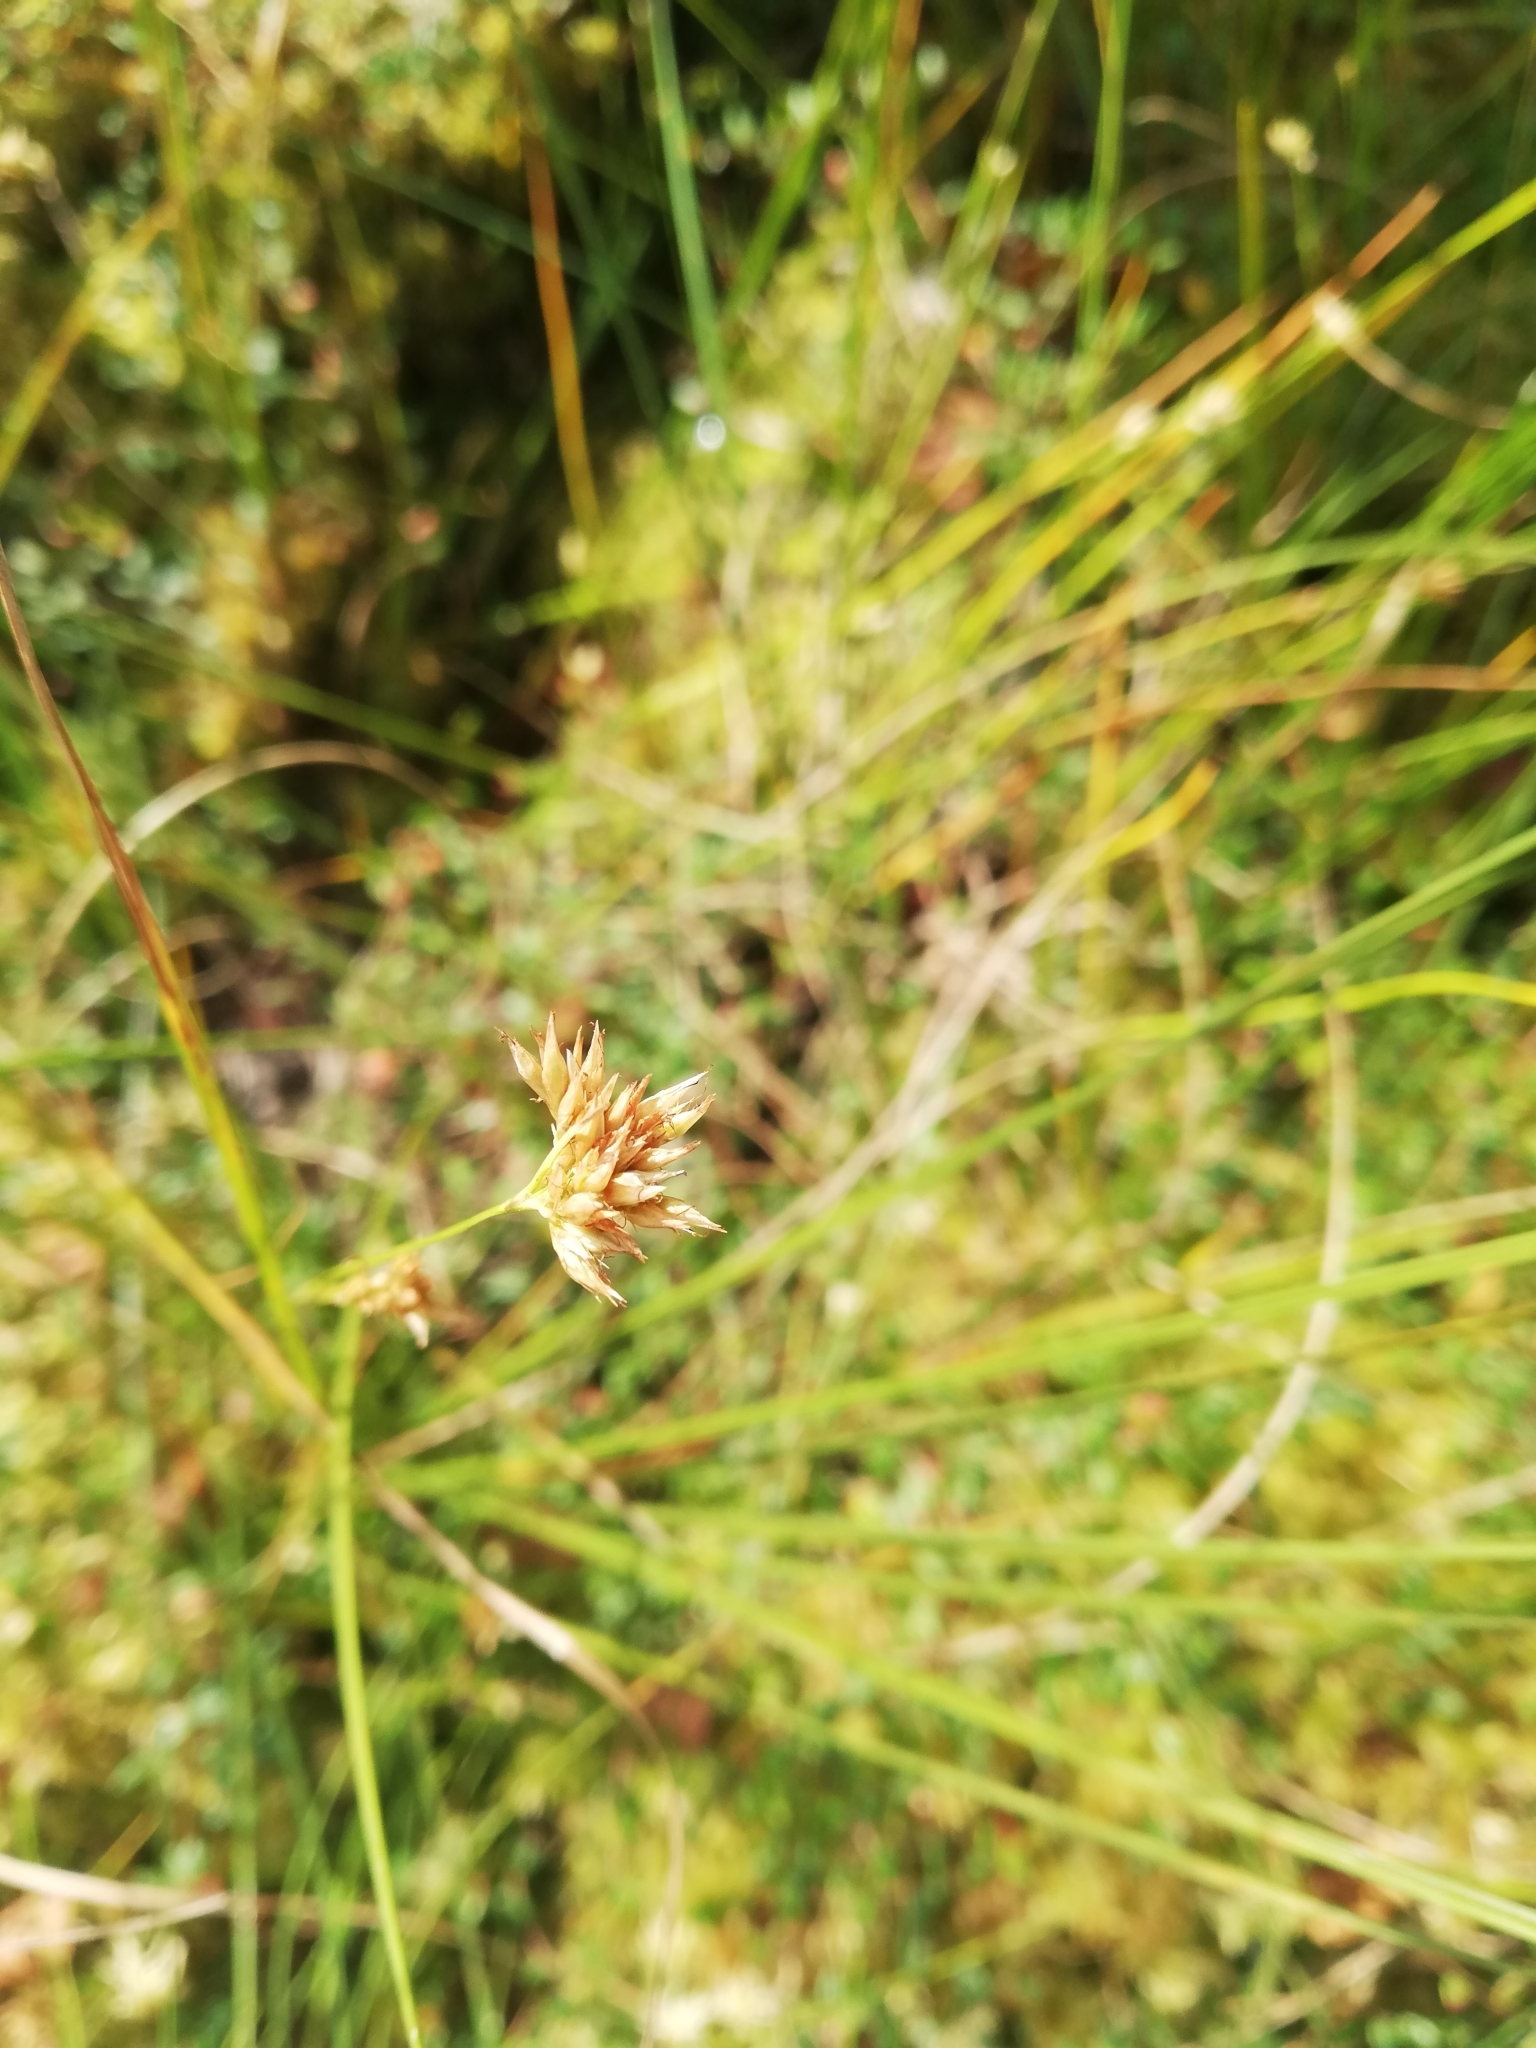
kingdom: Plantae
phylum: Tracheophyta
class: Liliopsida
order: Poales
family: Cyperaceae
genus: Rhynchospora
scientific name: Rhynchospora alba
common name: White beak-sedge
